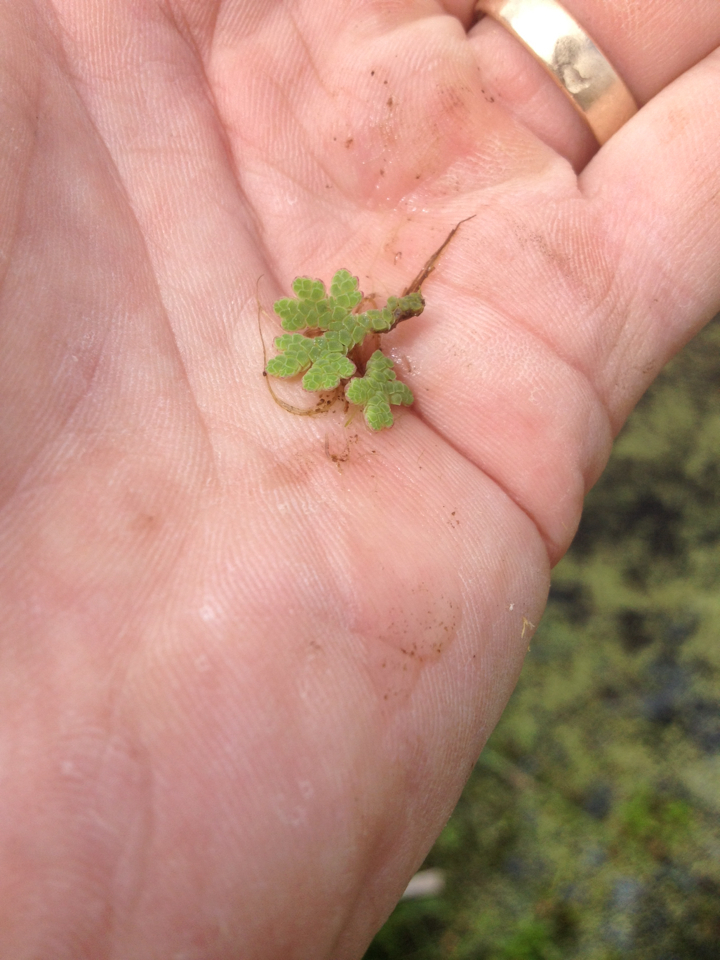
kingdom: Plantae
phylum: Tracheophyta
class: Polypodiopsida
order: Salviniales
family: Salviniaceae
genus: Azolla
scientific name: Azolla rubra
